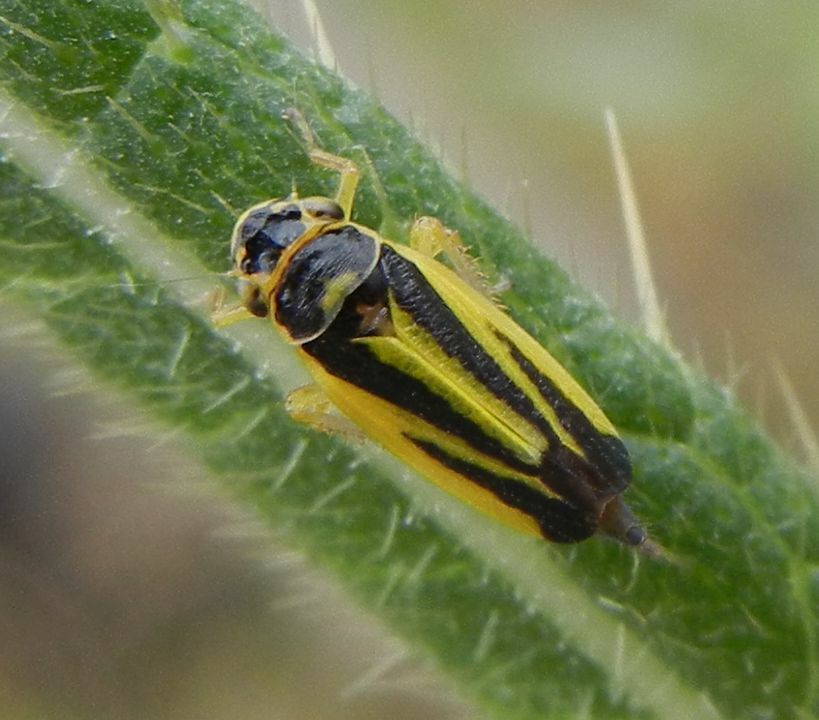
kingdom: Animalia
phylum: Arthropoda
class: Insecta
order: Hemiptera
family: Cicadellidae
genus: Evacanthus
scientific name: Evacanthus interruptus
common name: Leafhopper
